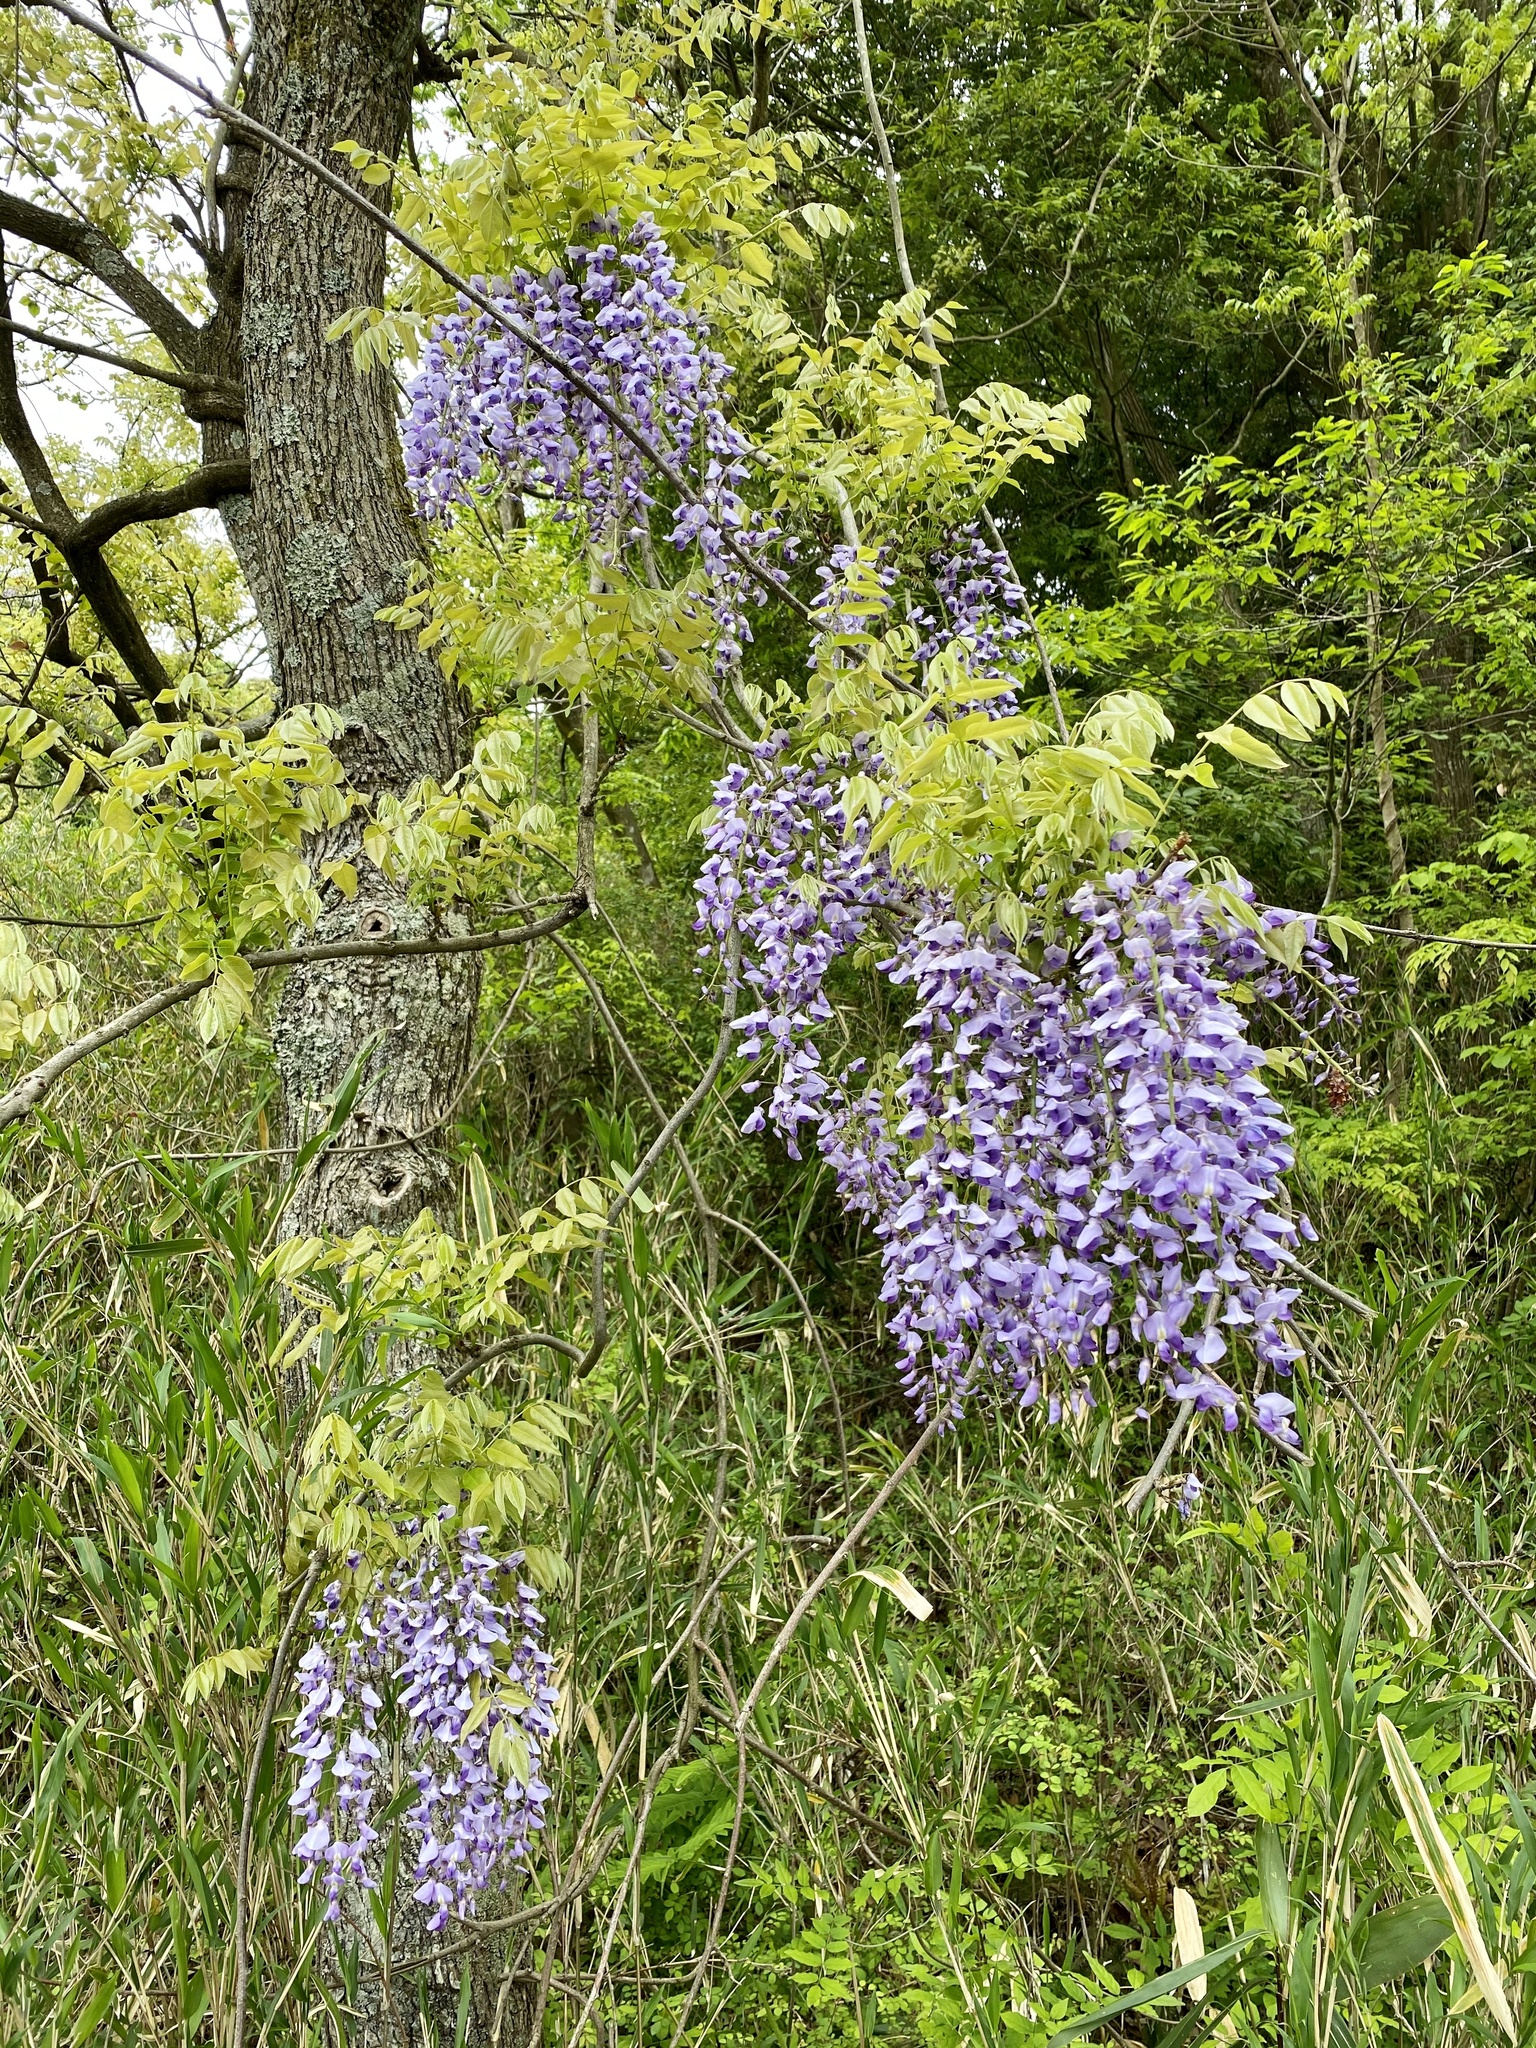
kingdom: Plantae
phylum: Tracheophyta
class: Magnoliopsida
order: Fabales
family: Fabaceae
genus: Wisteria
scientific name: Wisteria floribunda
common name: Japanese wisteria
